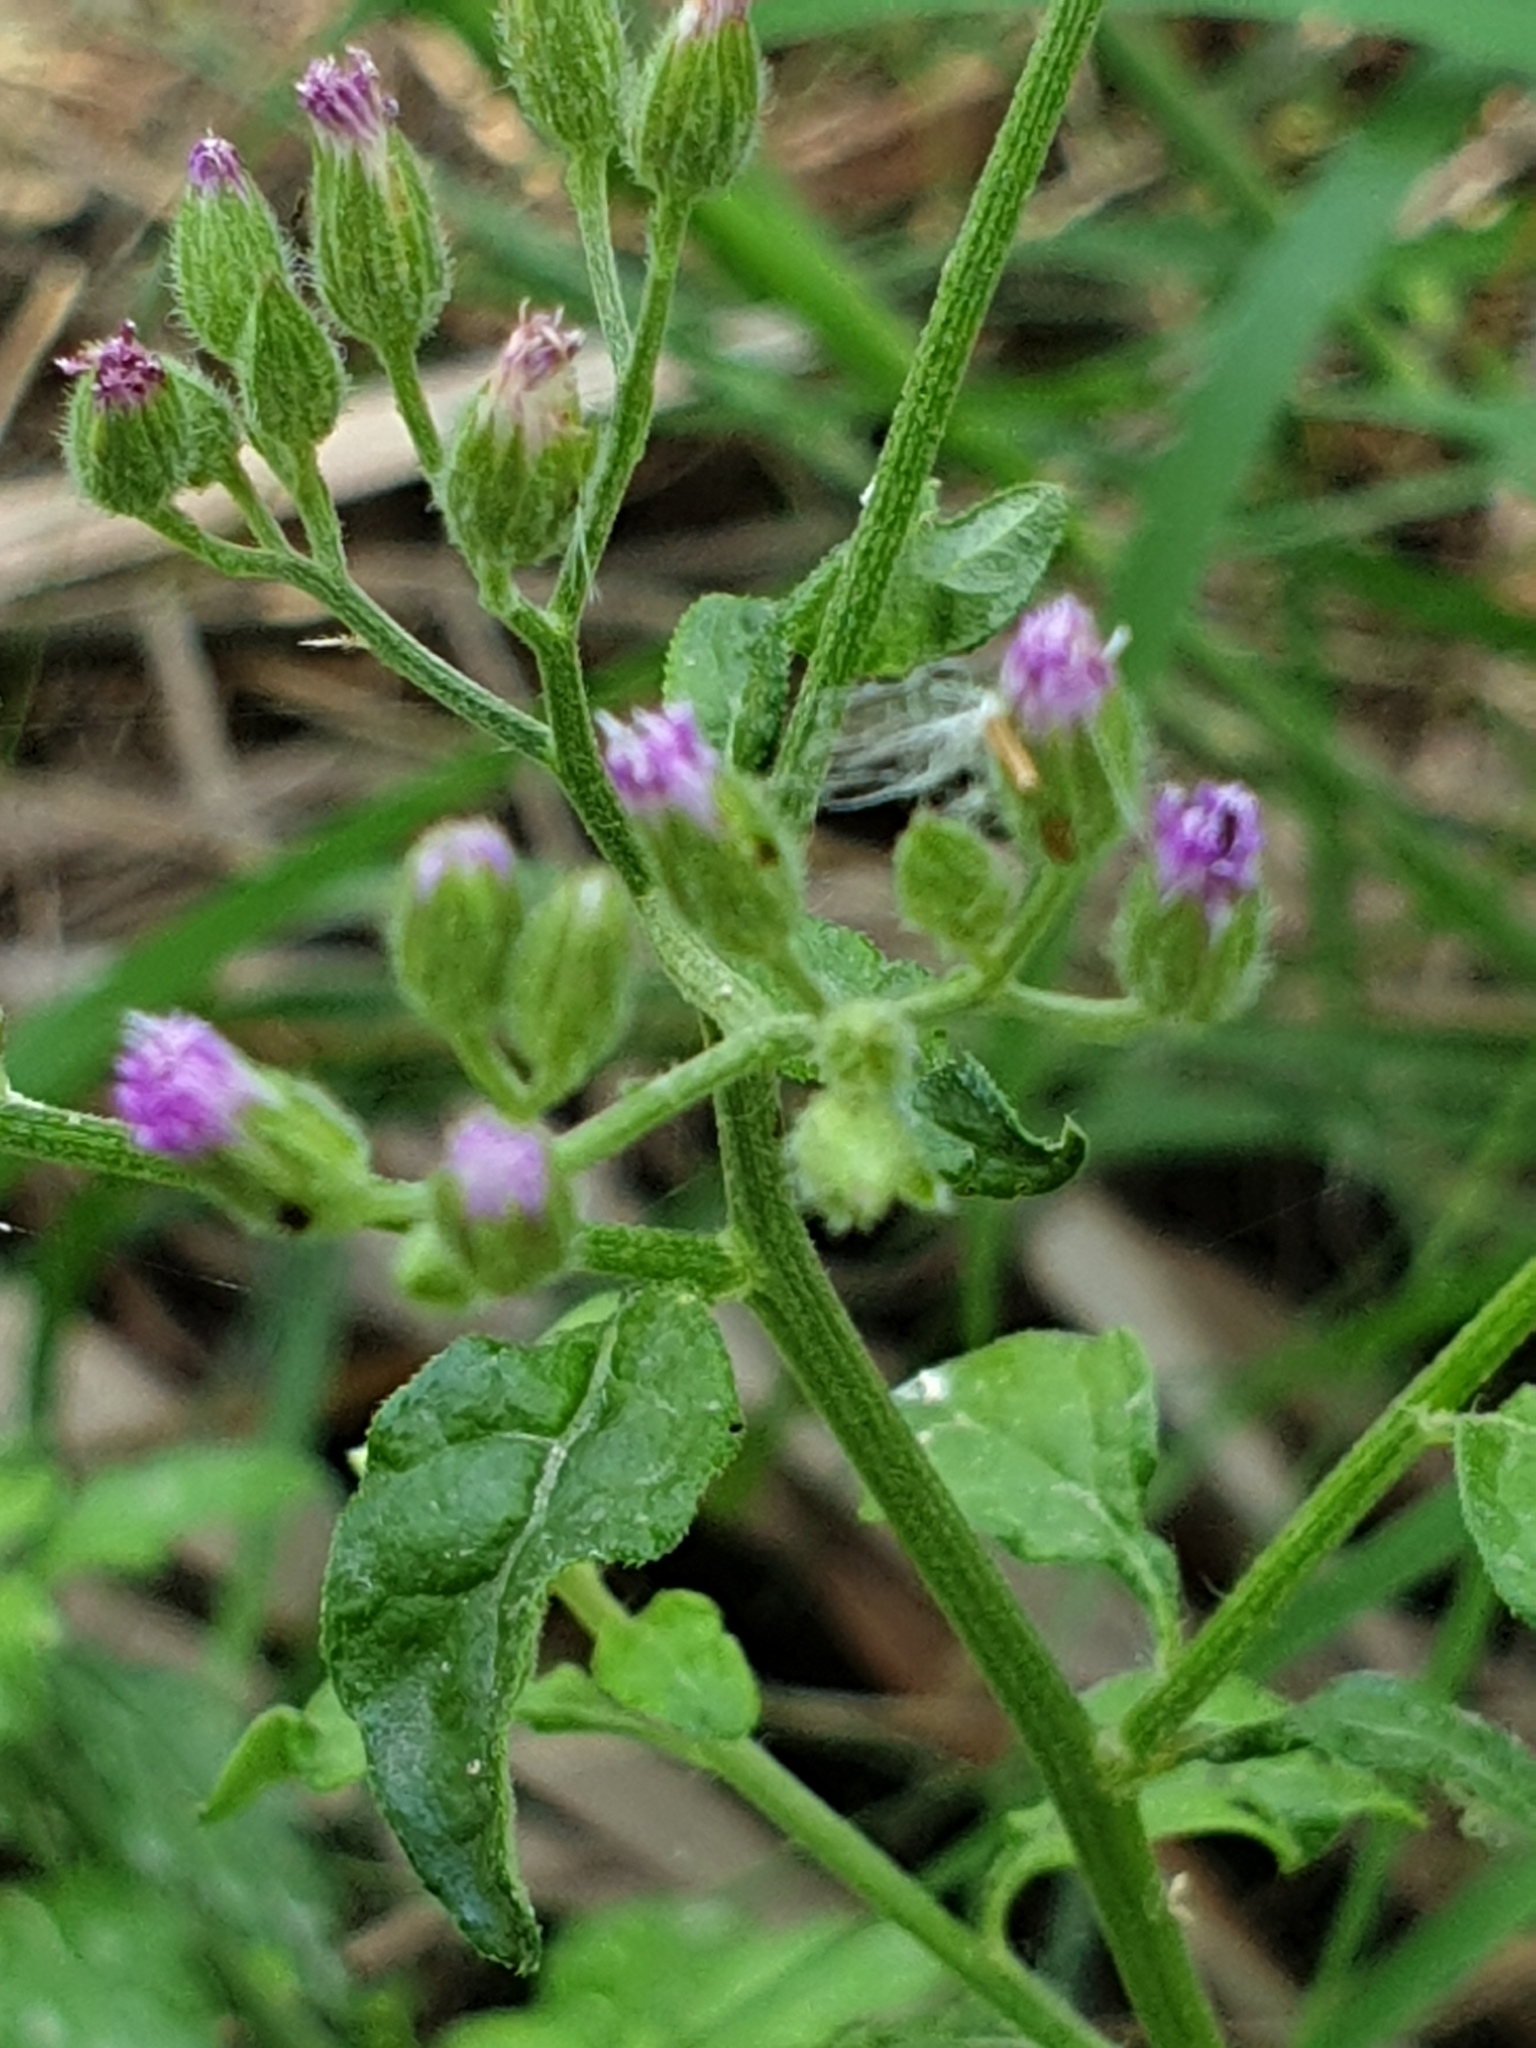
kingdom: Plantae
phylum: Tracheophyta
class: Magnoliopsida
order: Asterales
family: Asteraceae
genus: Cyanthillium
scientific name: Cyanthillium cinereum
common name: Little ironweed
